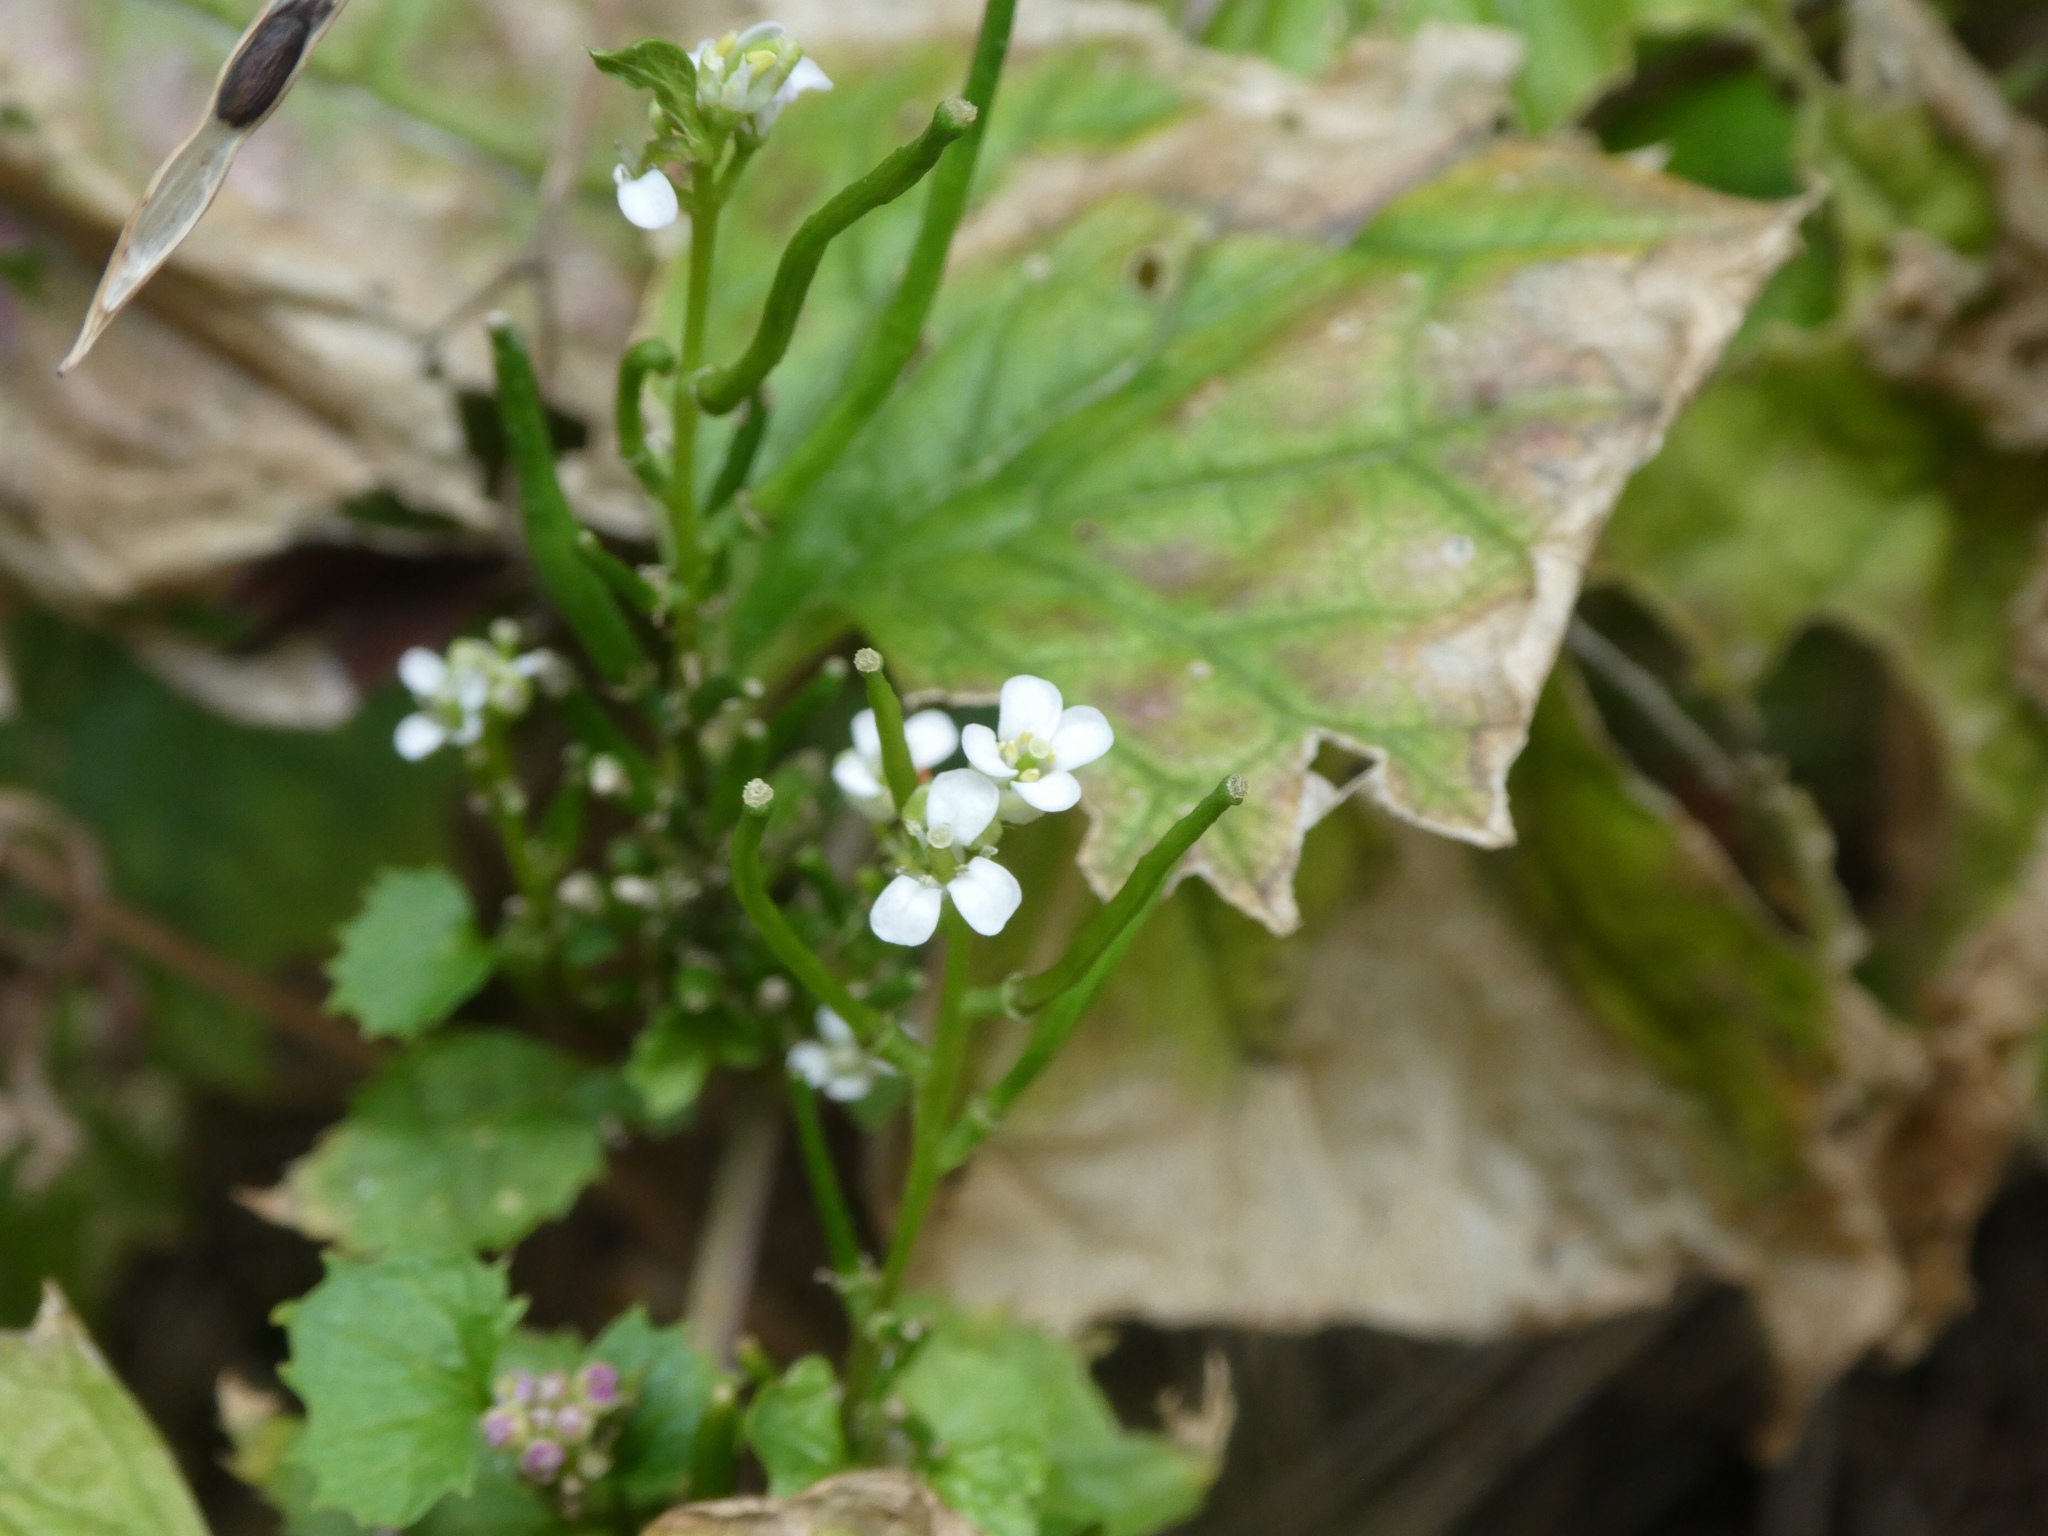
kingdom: Plantae
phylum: Tracheophyta
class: Magnoliopsida
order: Brassicales
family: Brassicaceae
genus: Alliaria
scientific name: Alliaria petiolata
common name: Garlic mustard
